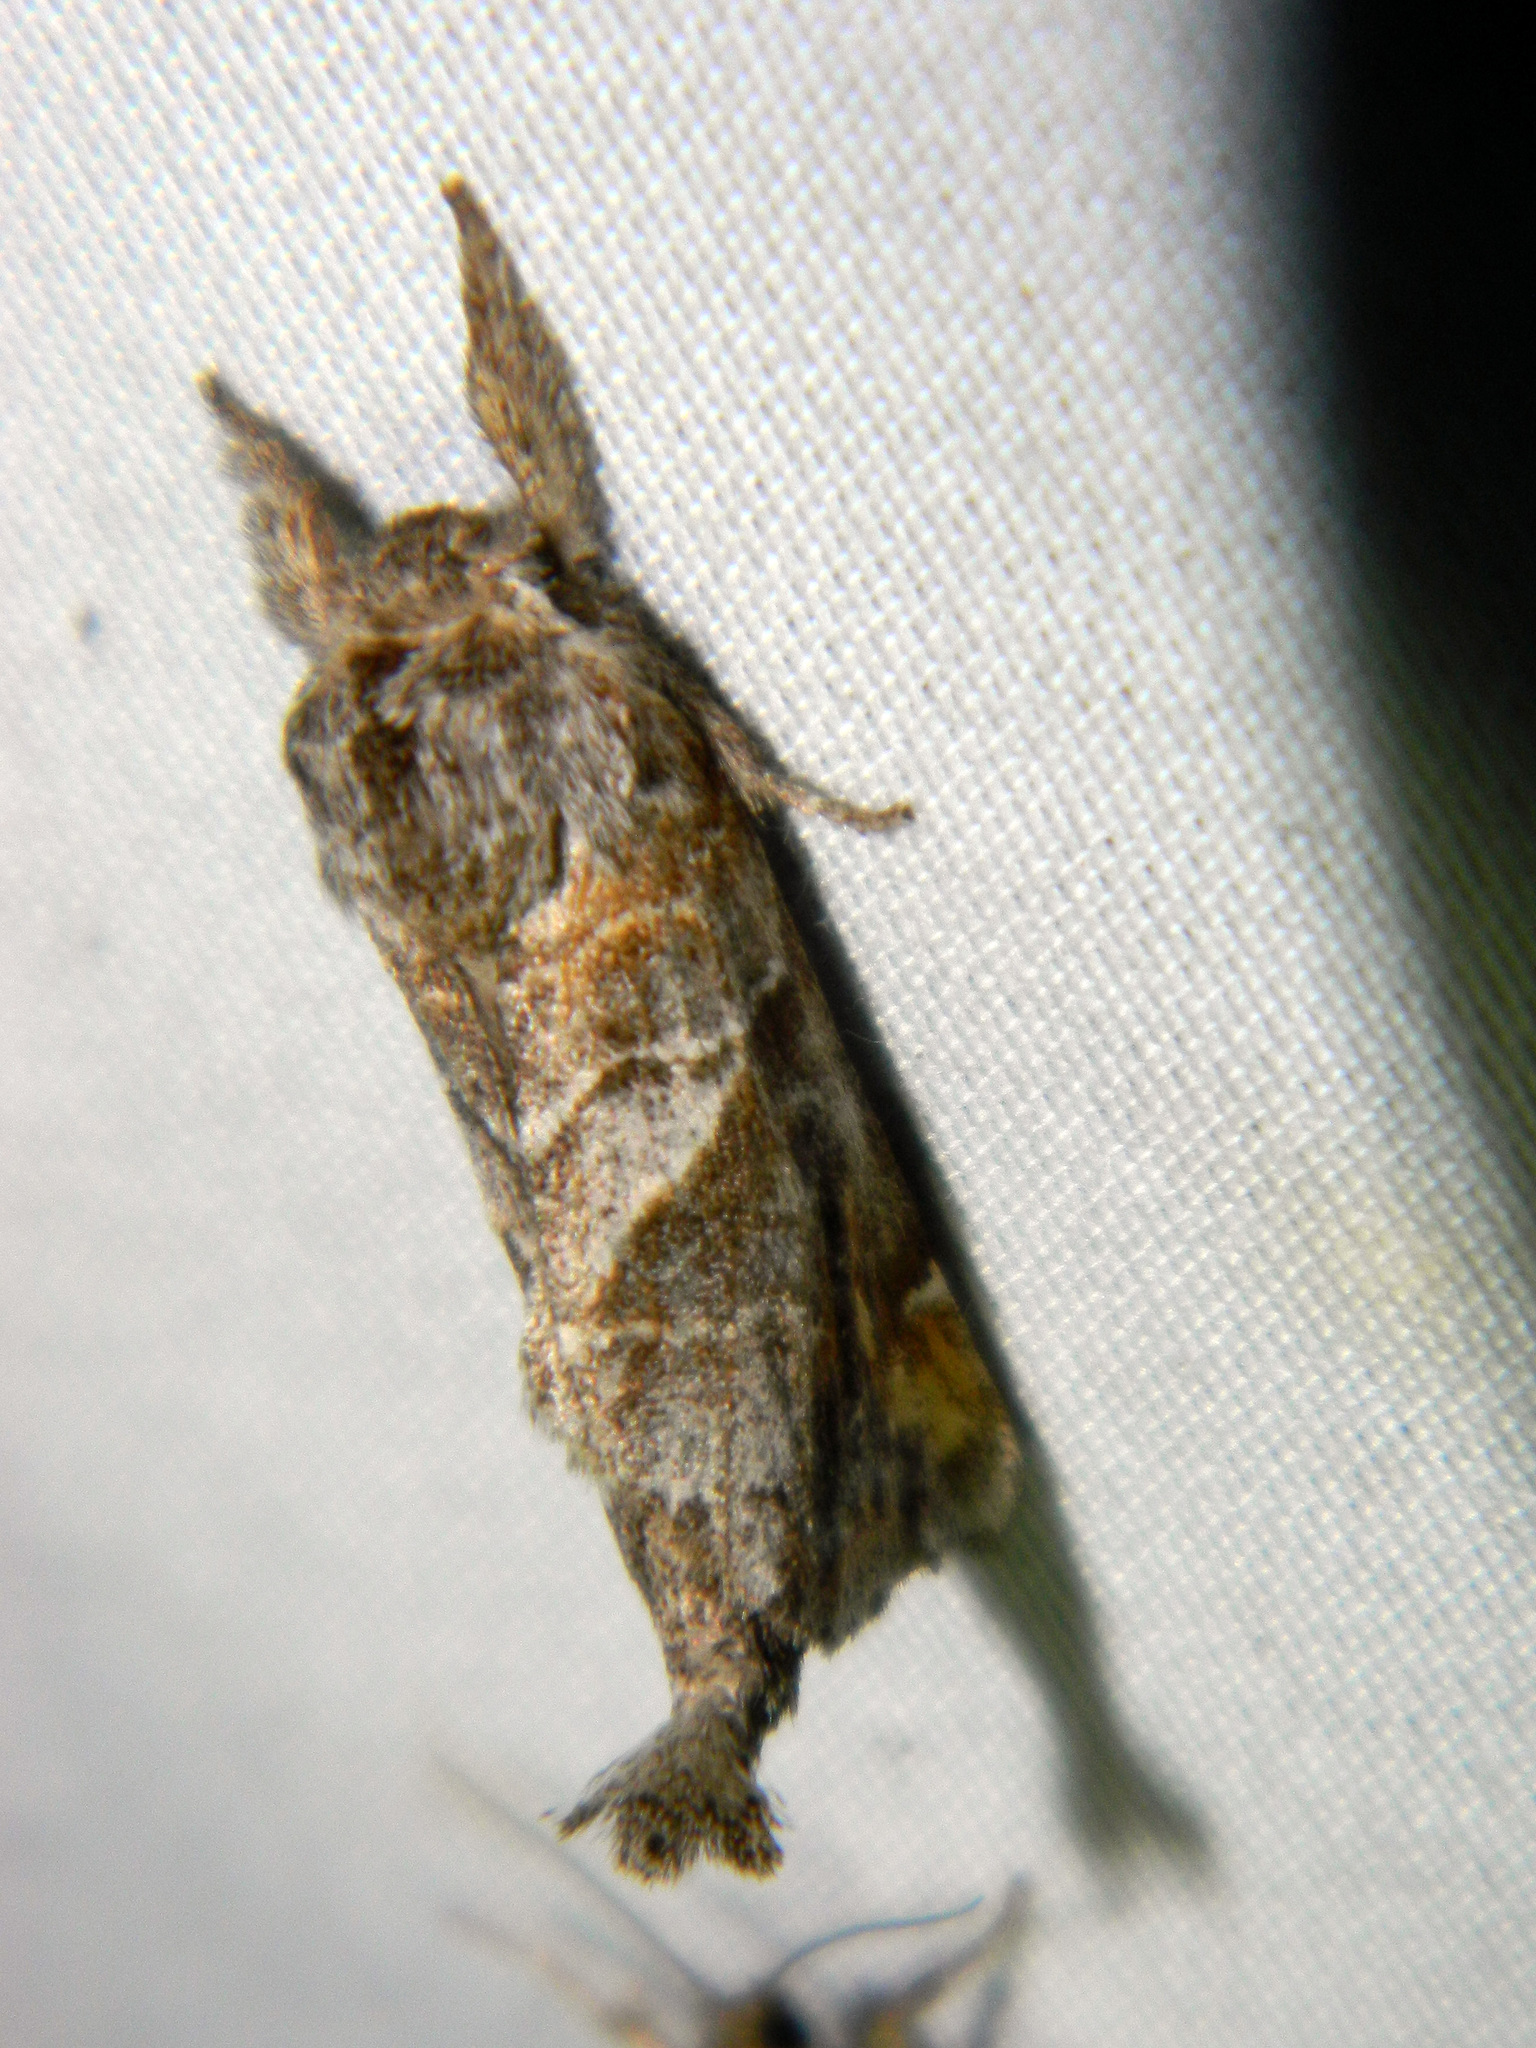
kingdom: Animalia
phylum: Arthropoda
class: Insecta
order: Lepidoptera
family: Notodontidae
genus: Clostera
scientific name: Clostera strigosa
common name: Striped chocolate-tip moth
